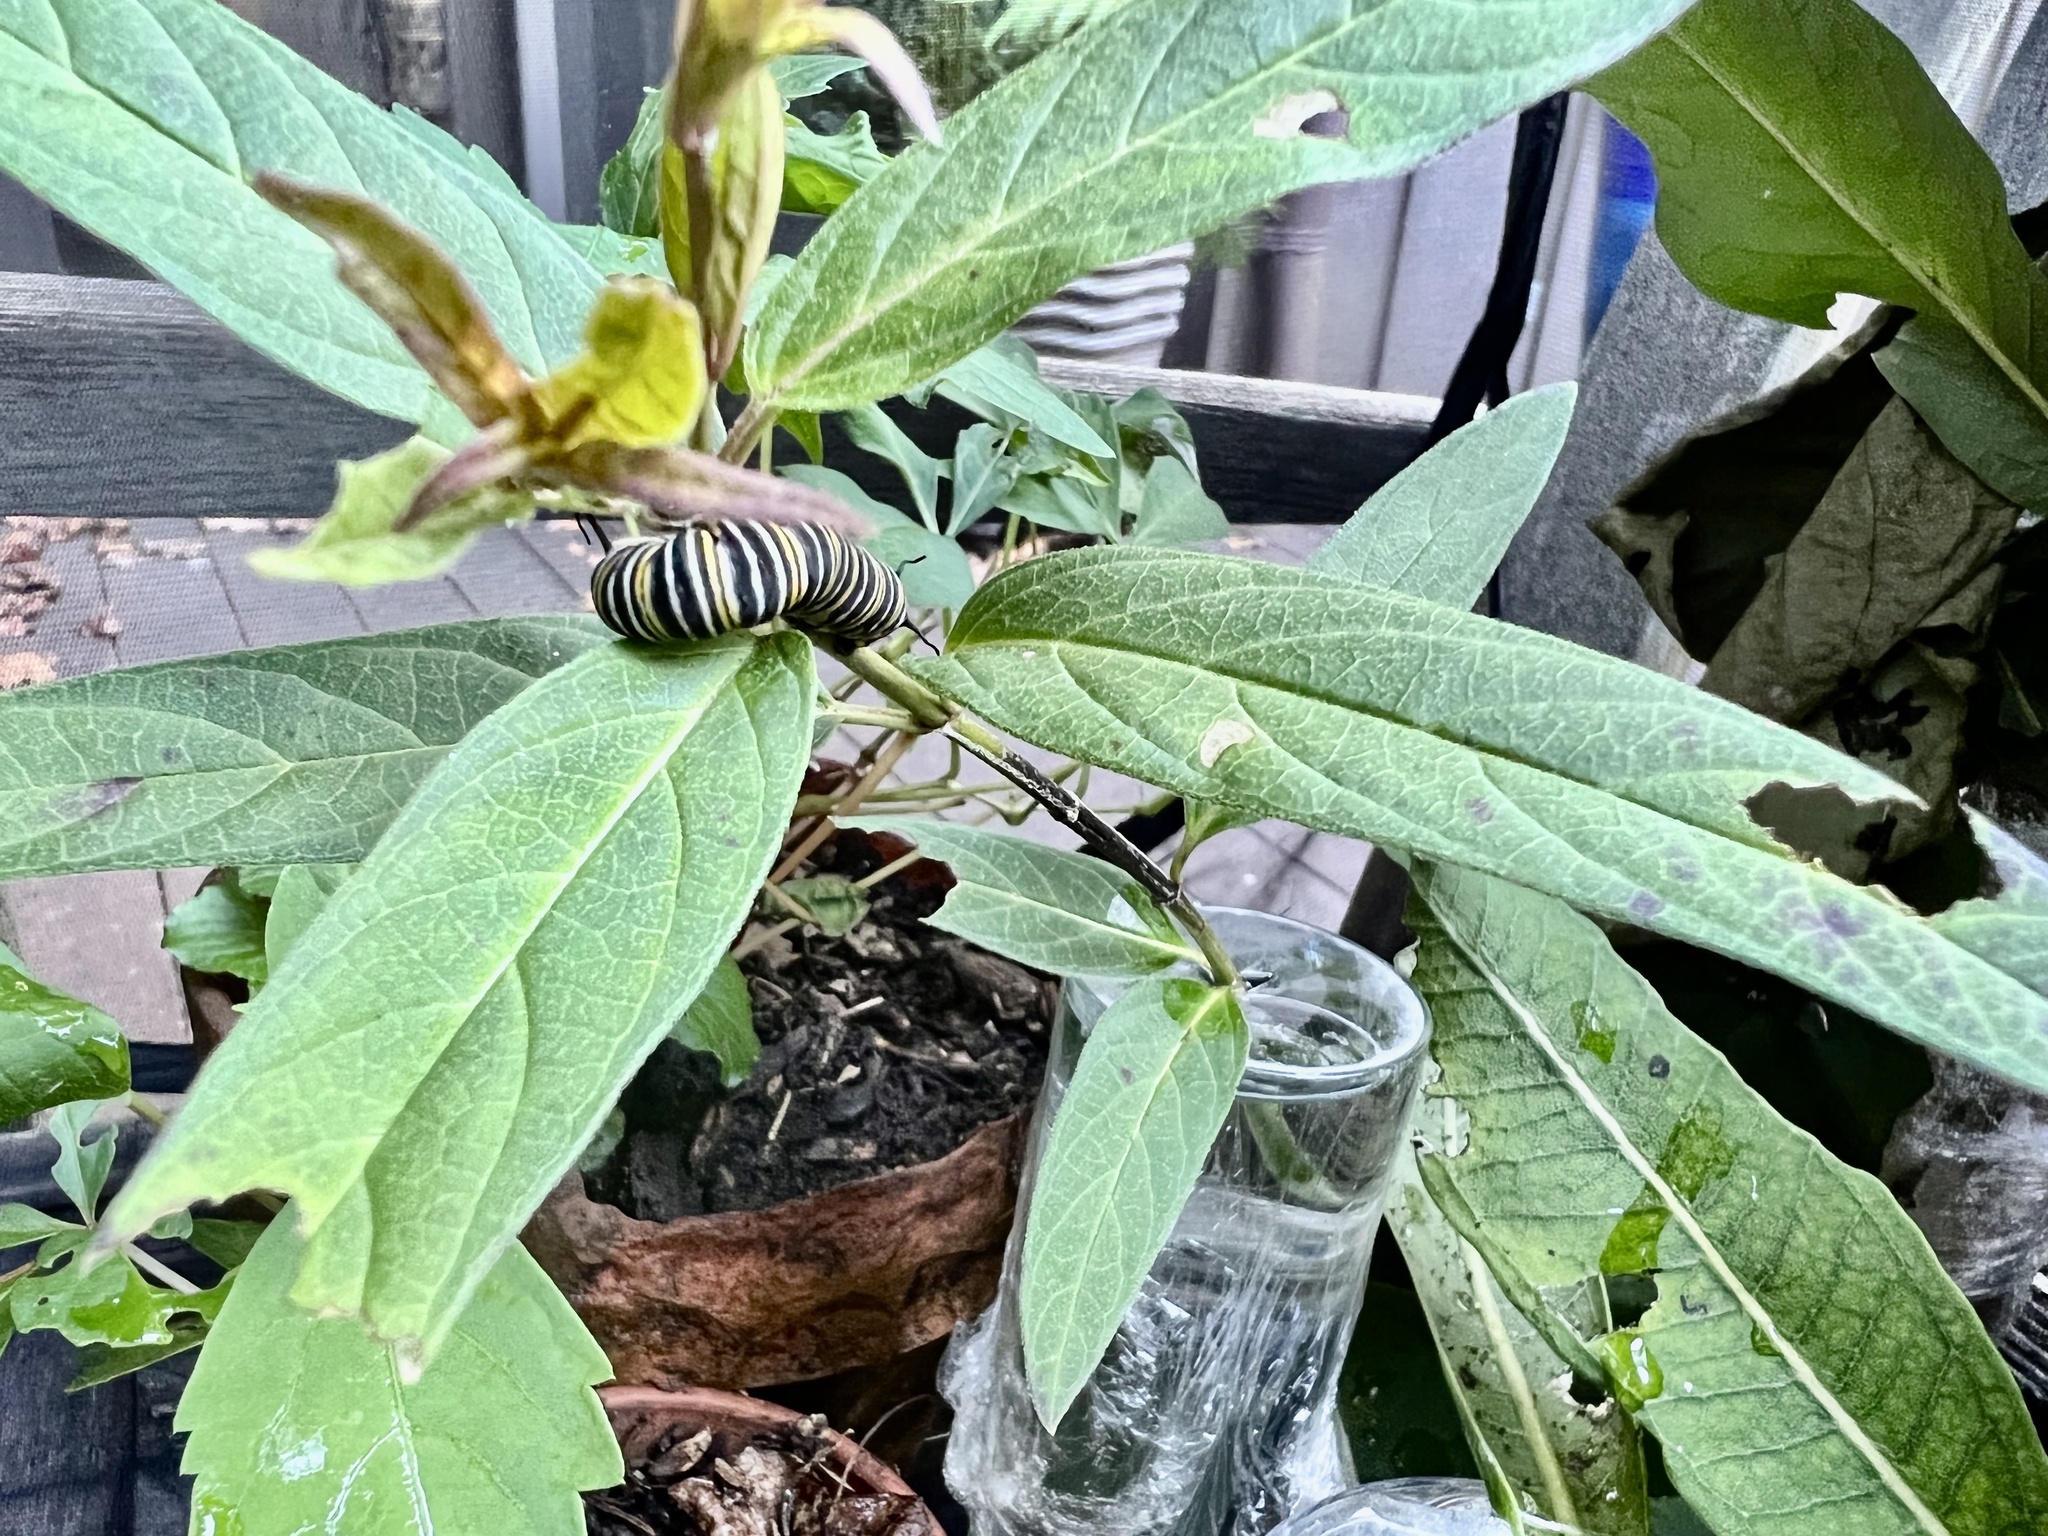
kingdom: Animalia
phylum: Arthropoda
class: Insecta
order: Lepidoptera
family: Nymphalidae
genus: Danaus
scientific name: Danaus plexippus
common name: Monarch
